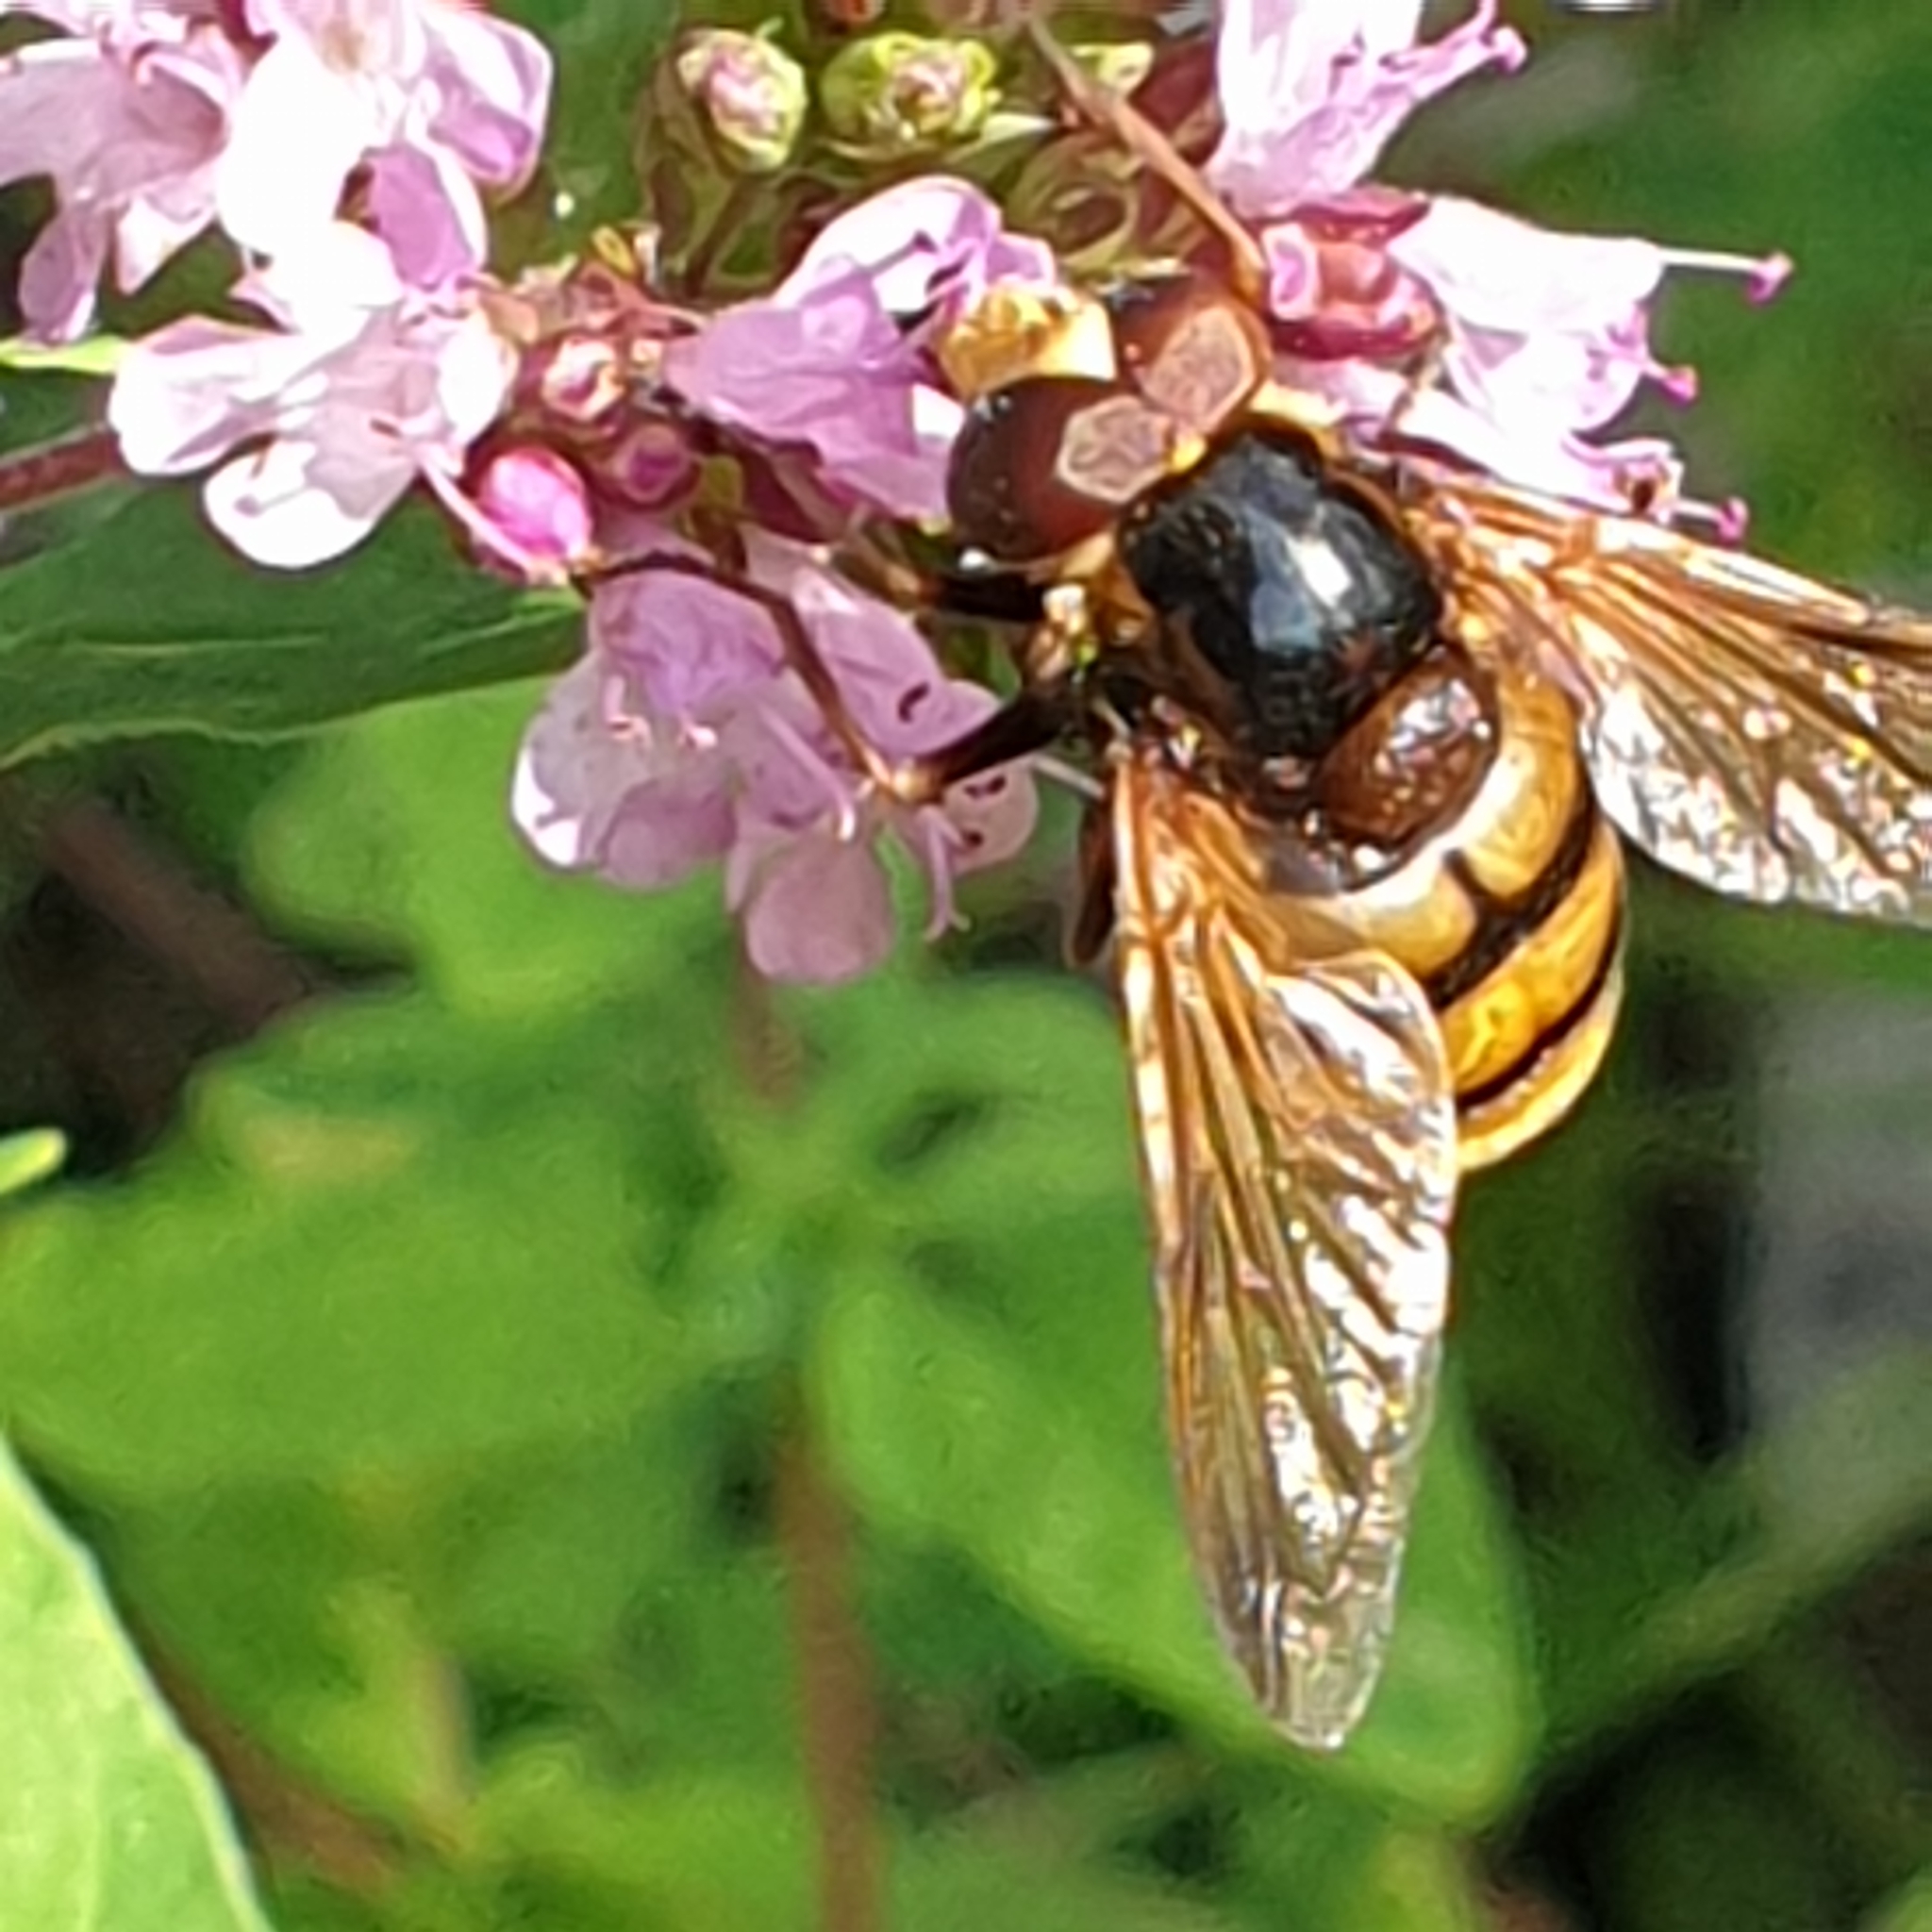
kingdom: Animalia
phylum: Arthropoda
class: Insecta
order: Diptera
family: Syrphidae
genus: Volucella
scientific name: Volucella inanis
